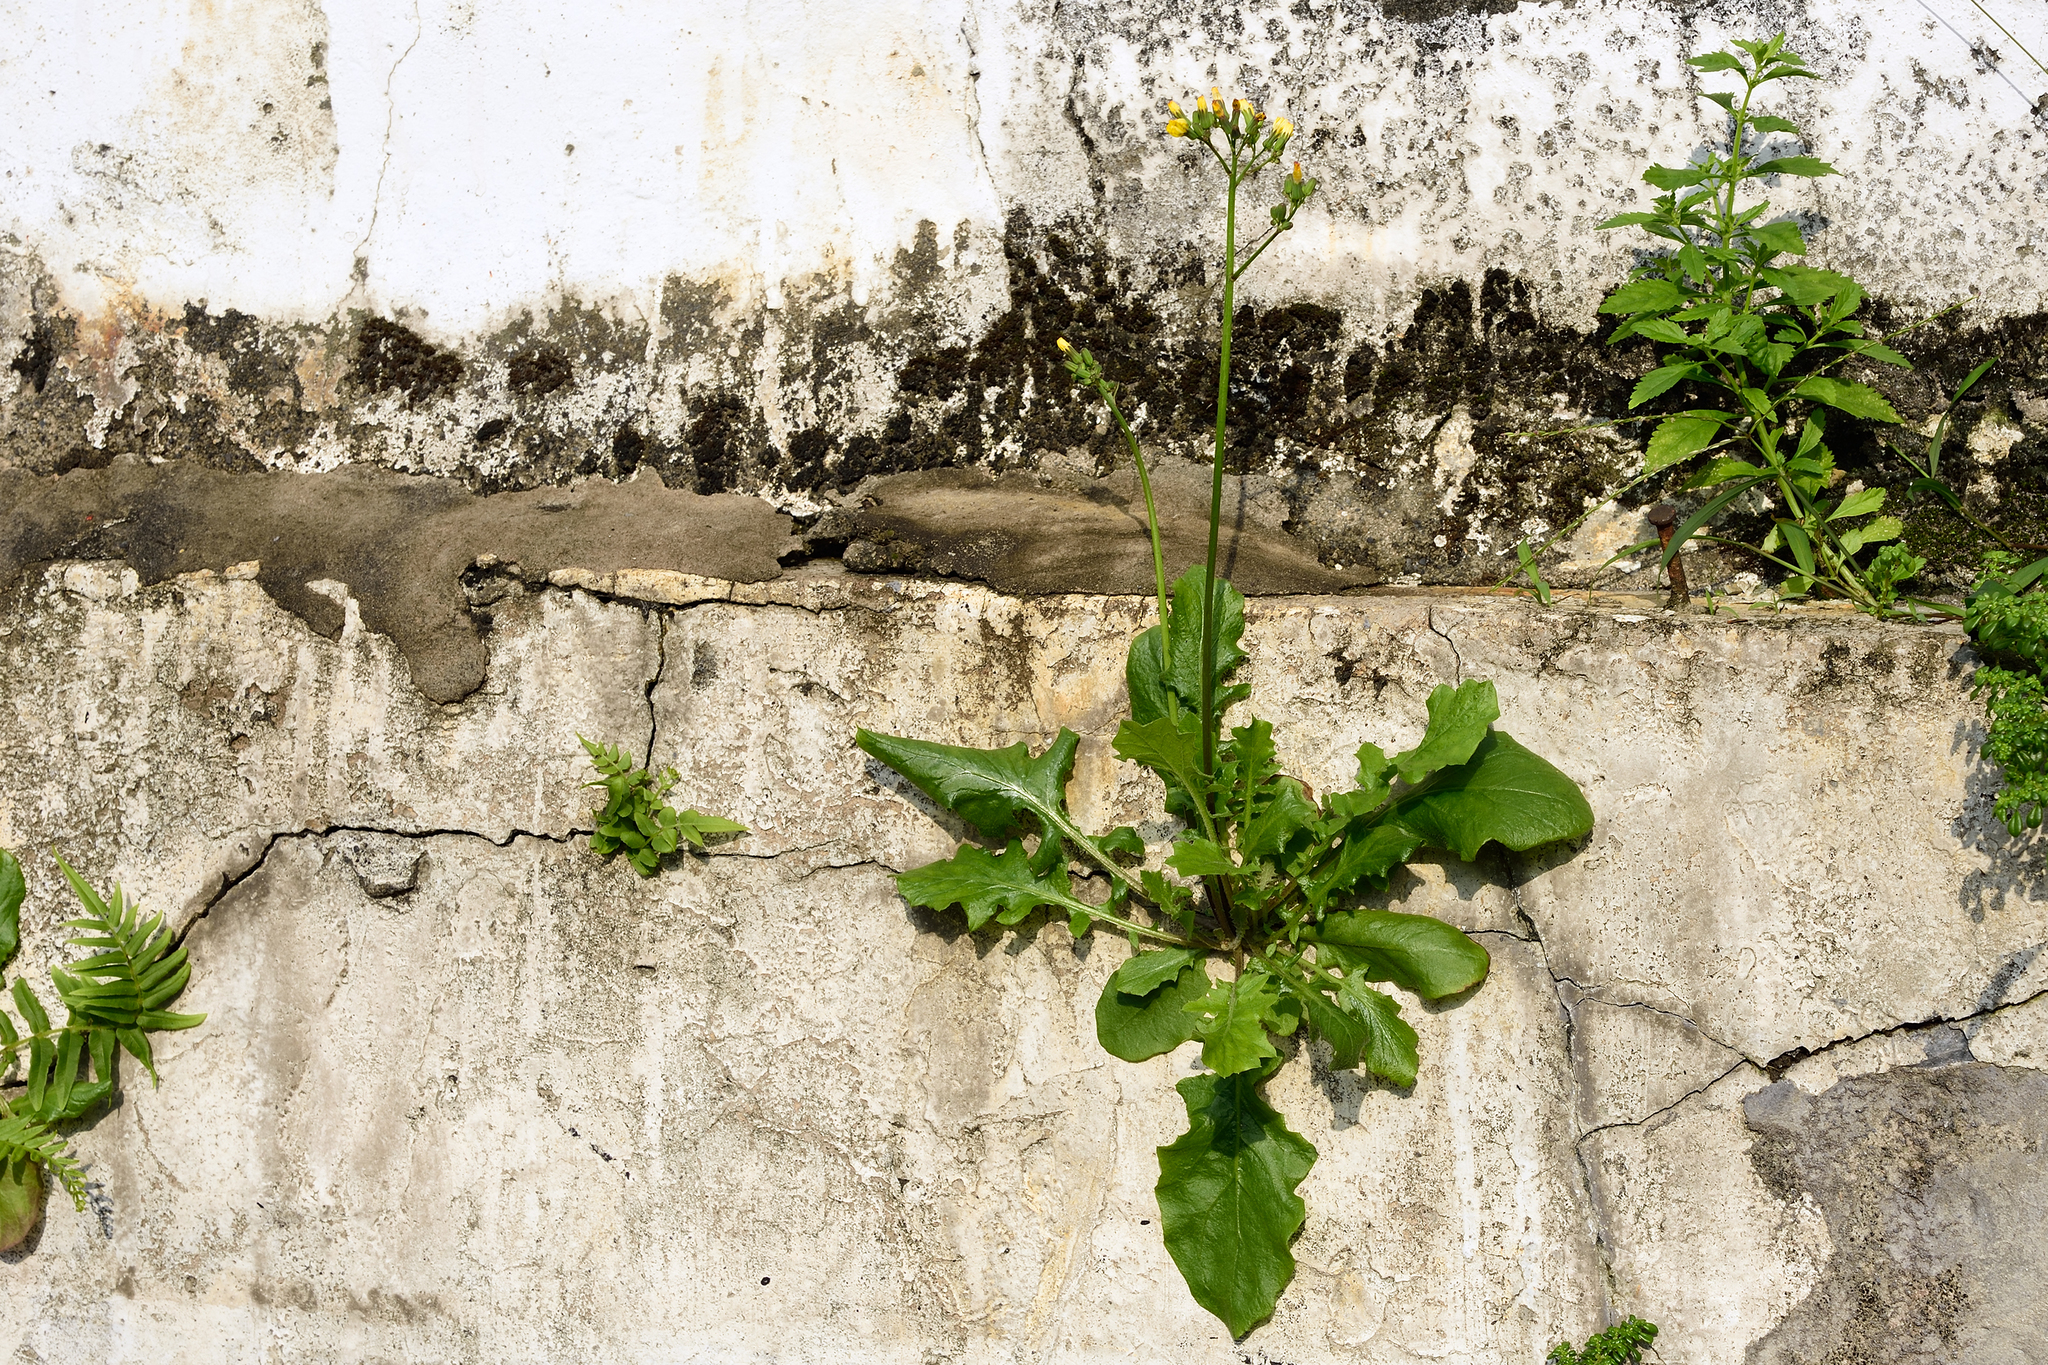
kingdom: Plantae
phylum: Tracheophyta
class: Magnoliopsida
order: Asterales
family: Asteraceae
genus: Youngia
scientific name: Youngia japonica
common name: Oriental false hawksbeard
